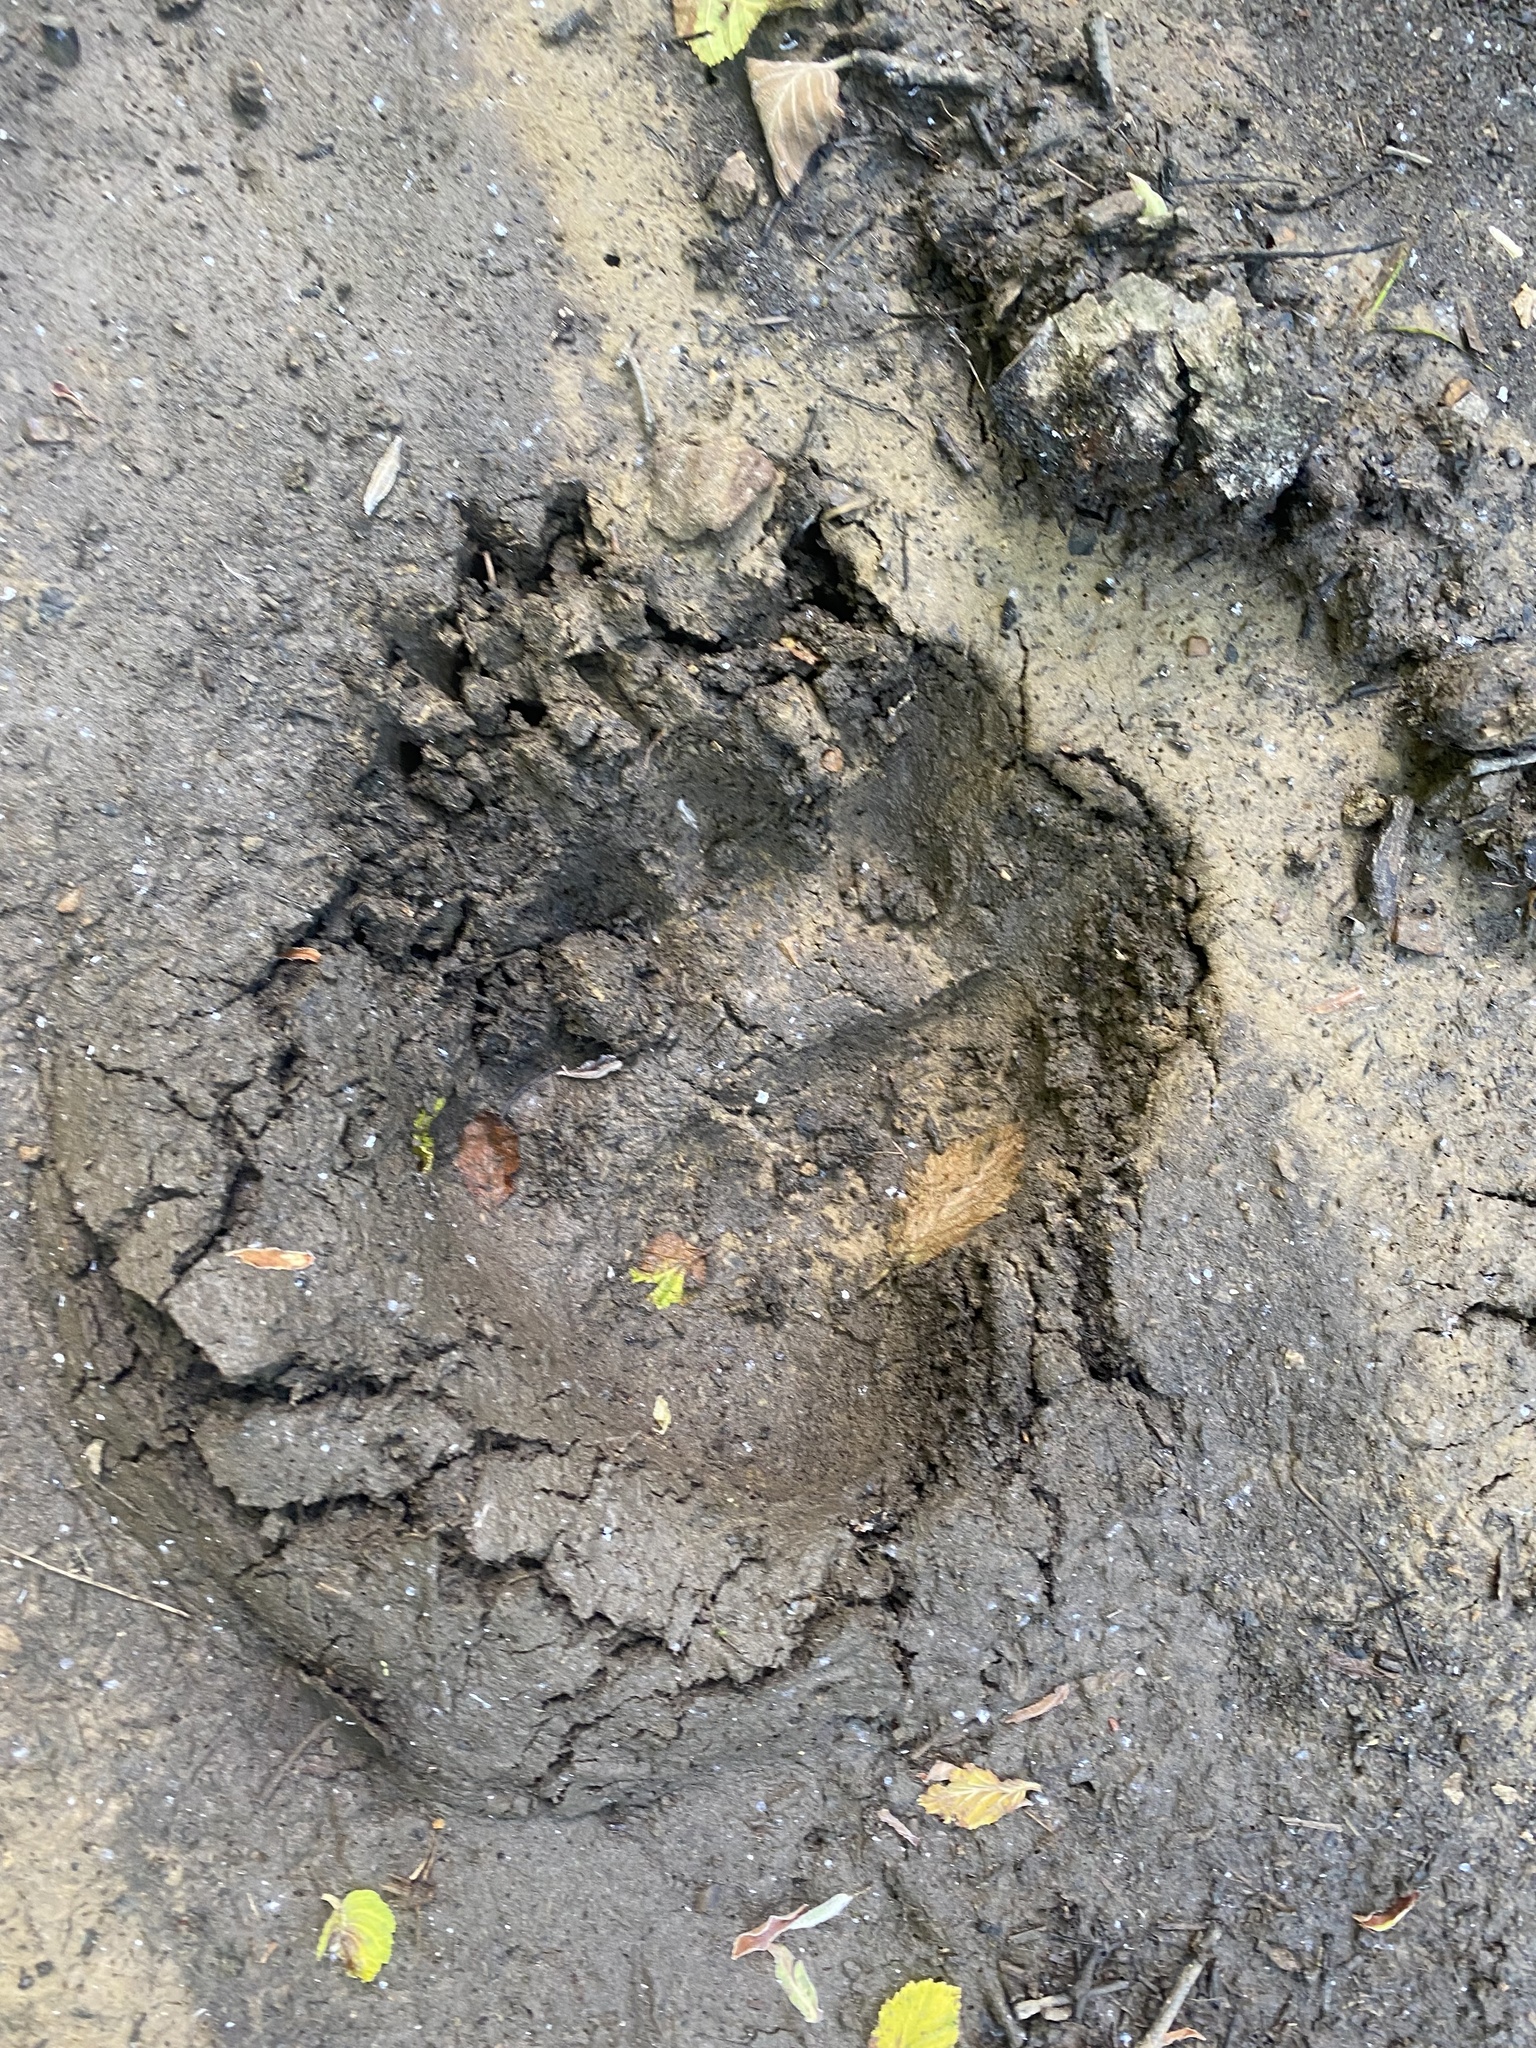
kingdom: Animalia
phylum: Chordata
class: Mammalia
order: Carnivora
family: Ursidae
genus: Ursus
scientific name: Ursus arctos
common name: Brown bear
